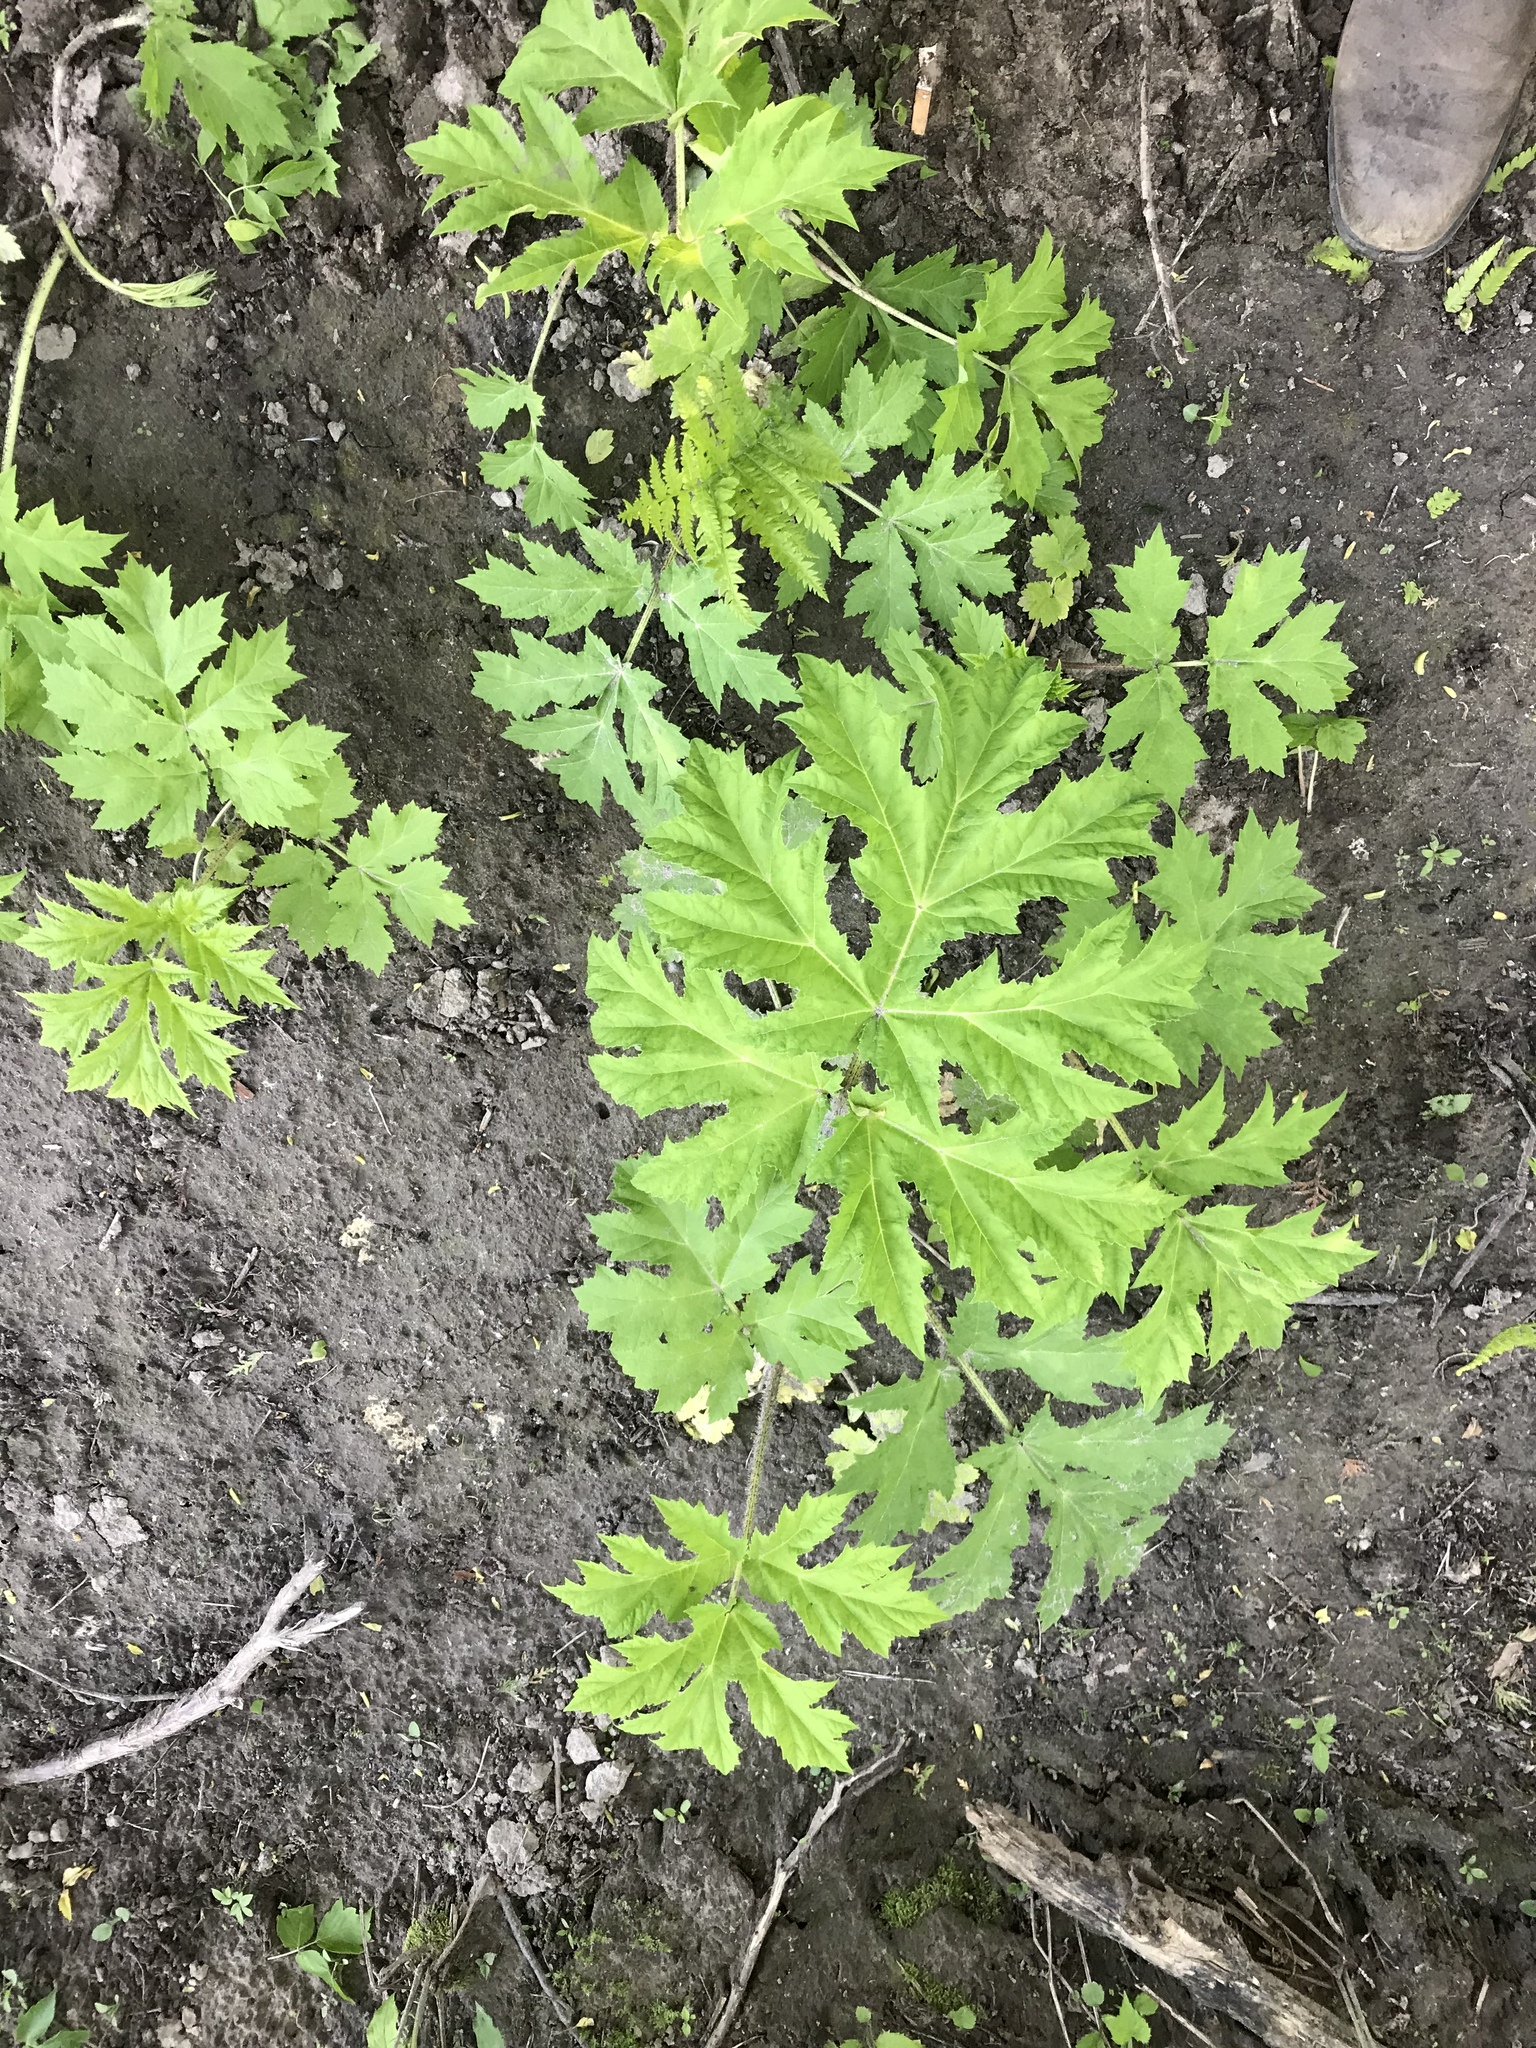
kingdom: Plantae
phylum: Tracheophyta
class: Magnoliopsida
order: Apiales
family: Apiaceae
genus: Heracleum
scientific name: Heracleum mantegazzianum
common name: Giant hogweed
